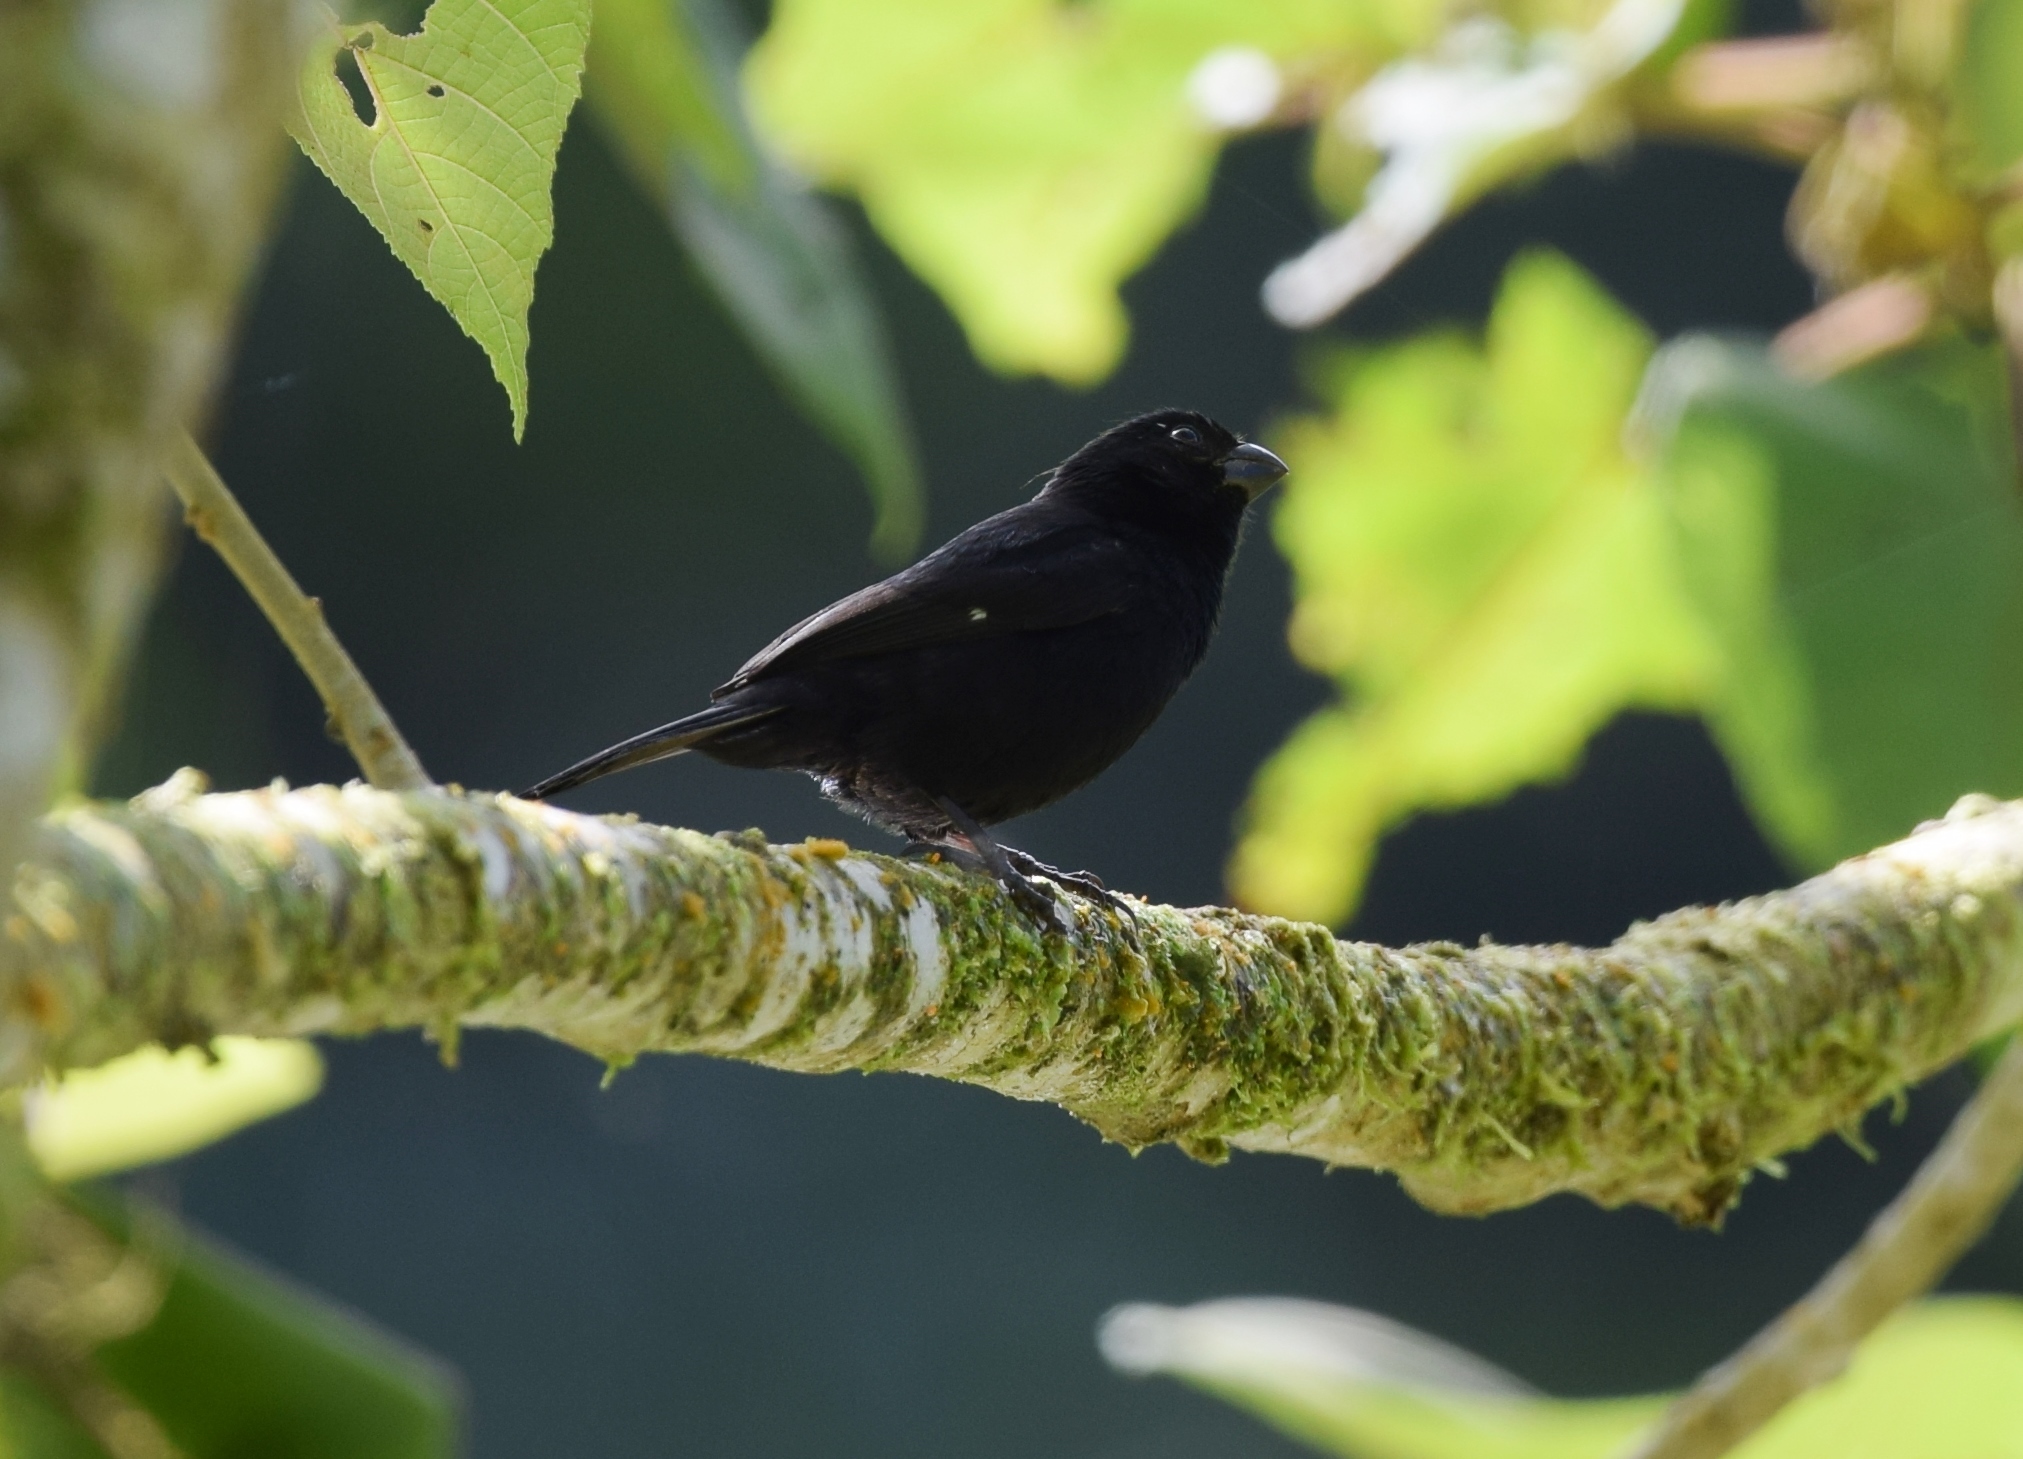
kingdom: Animalia
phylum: Chordata
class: Aves
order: Passeriformes
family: Thraupidae
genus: Sporophila
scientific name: Sporophila corvina
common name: Variable seedeater
